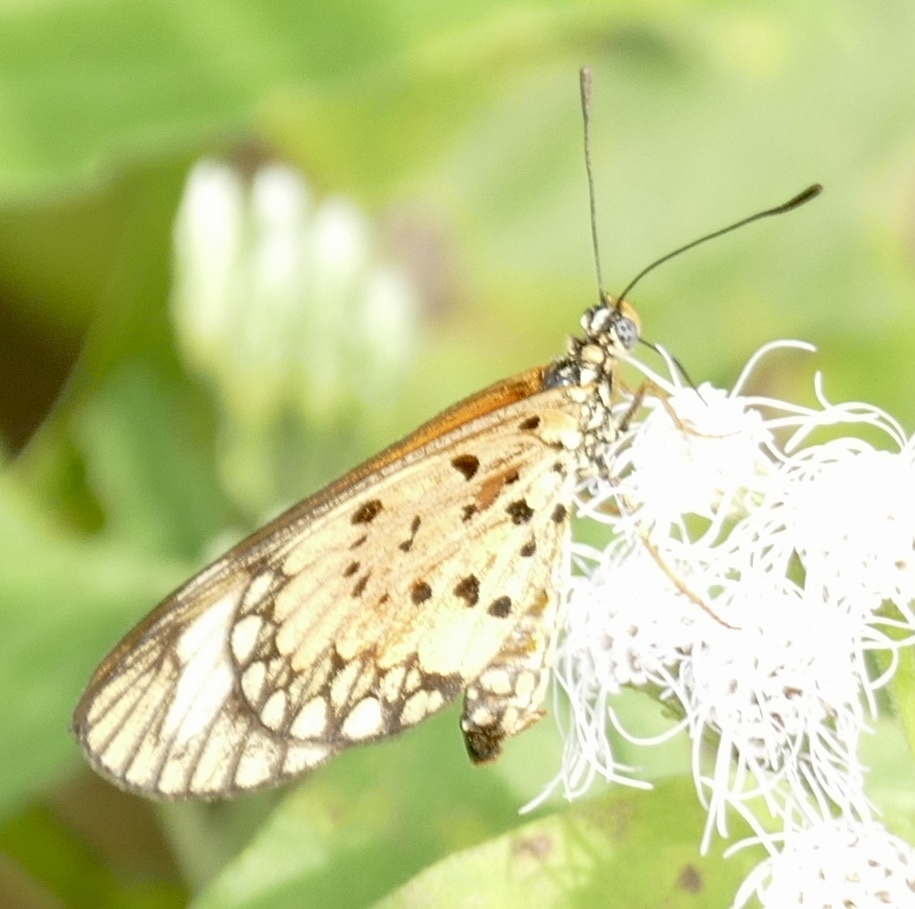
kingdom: Animalia
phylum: Arthropoda
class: Insecta
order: Lepidoptera
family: Nymphalidae
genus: Acraea
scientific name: Acraea Telchinia serena
